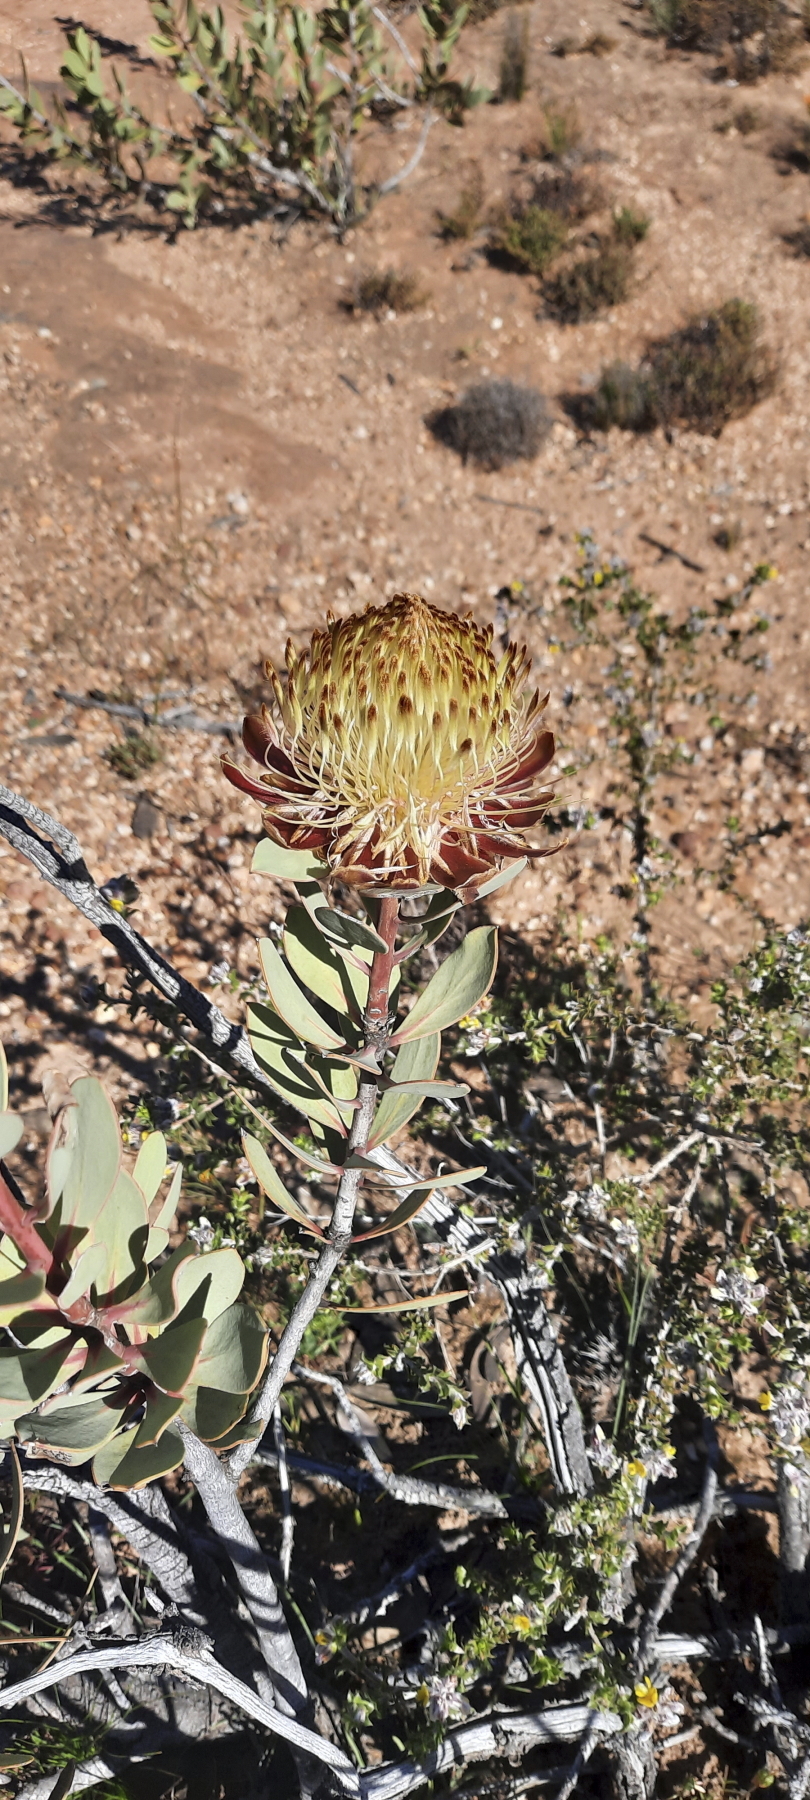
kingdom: Plantae
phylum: Tracheophyta
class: Magnoliopsida
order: Proteales
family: Proteaceae
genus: Protea
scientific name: Protea glabra
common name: Chestnut sugarbush
